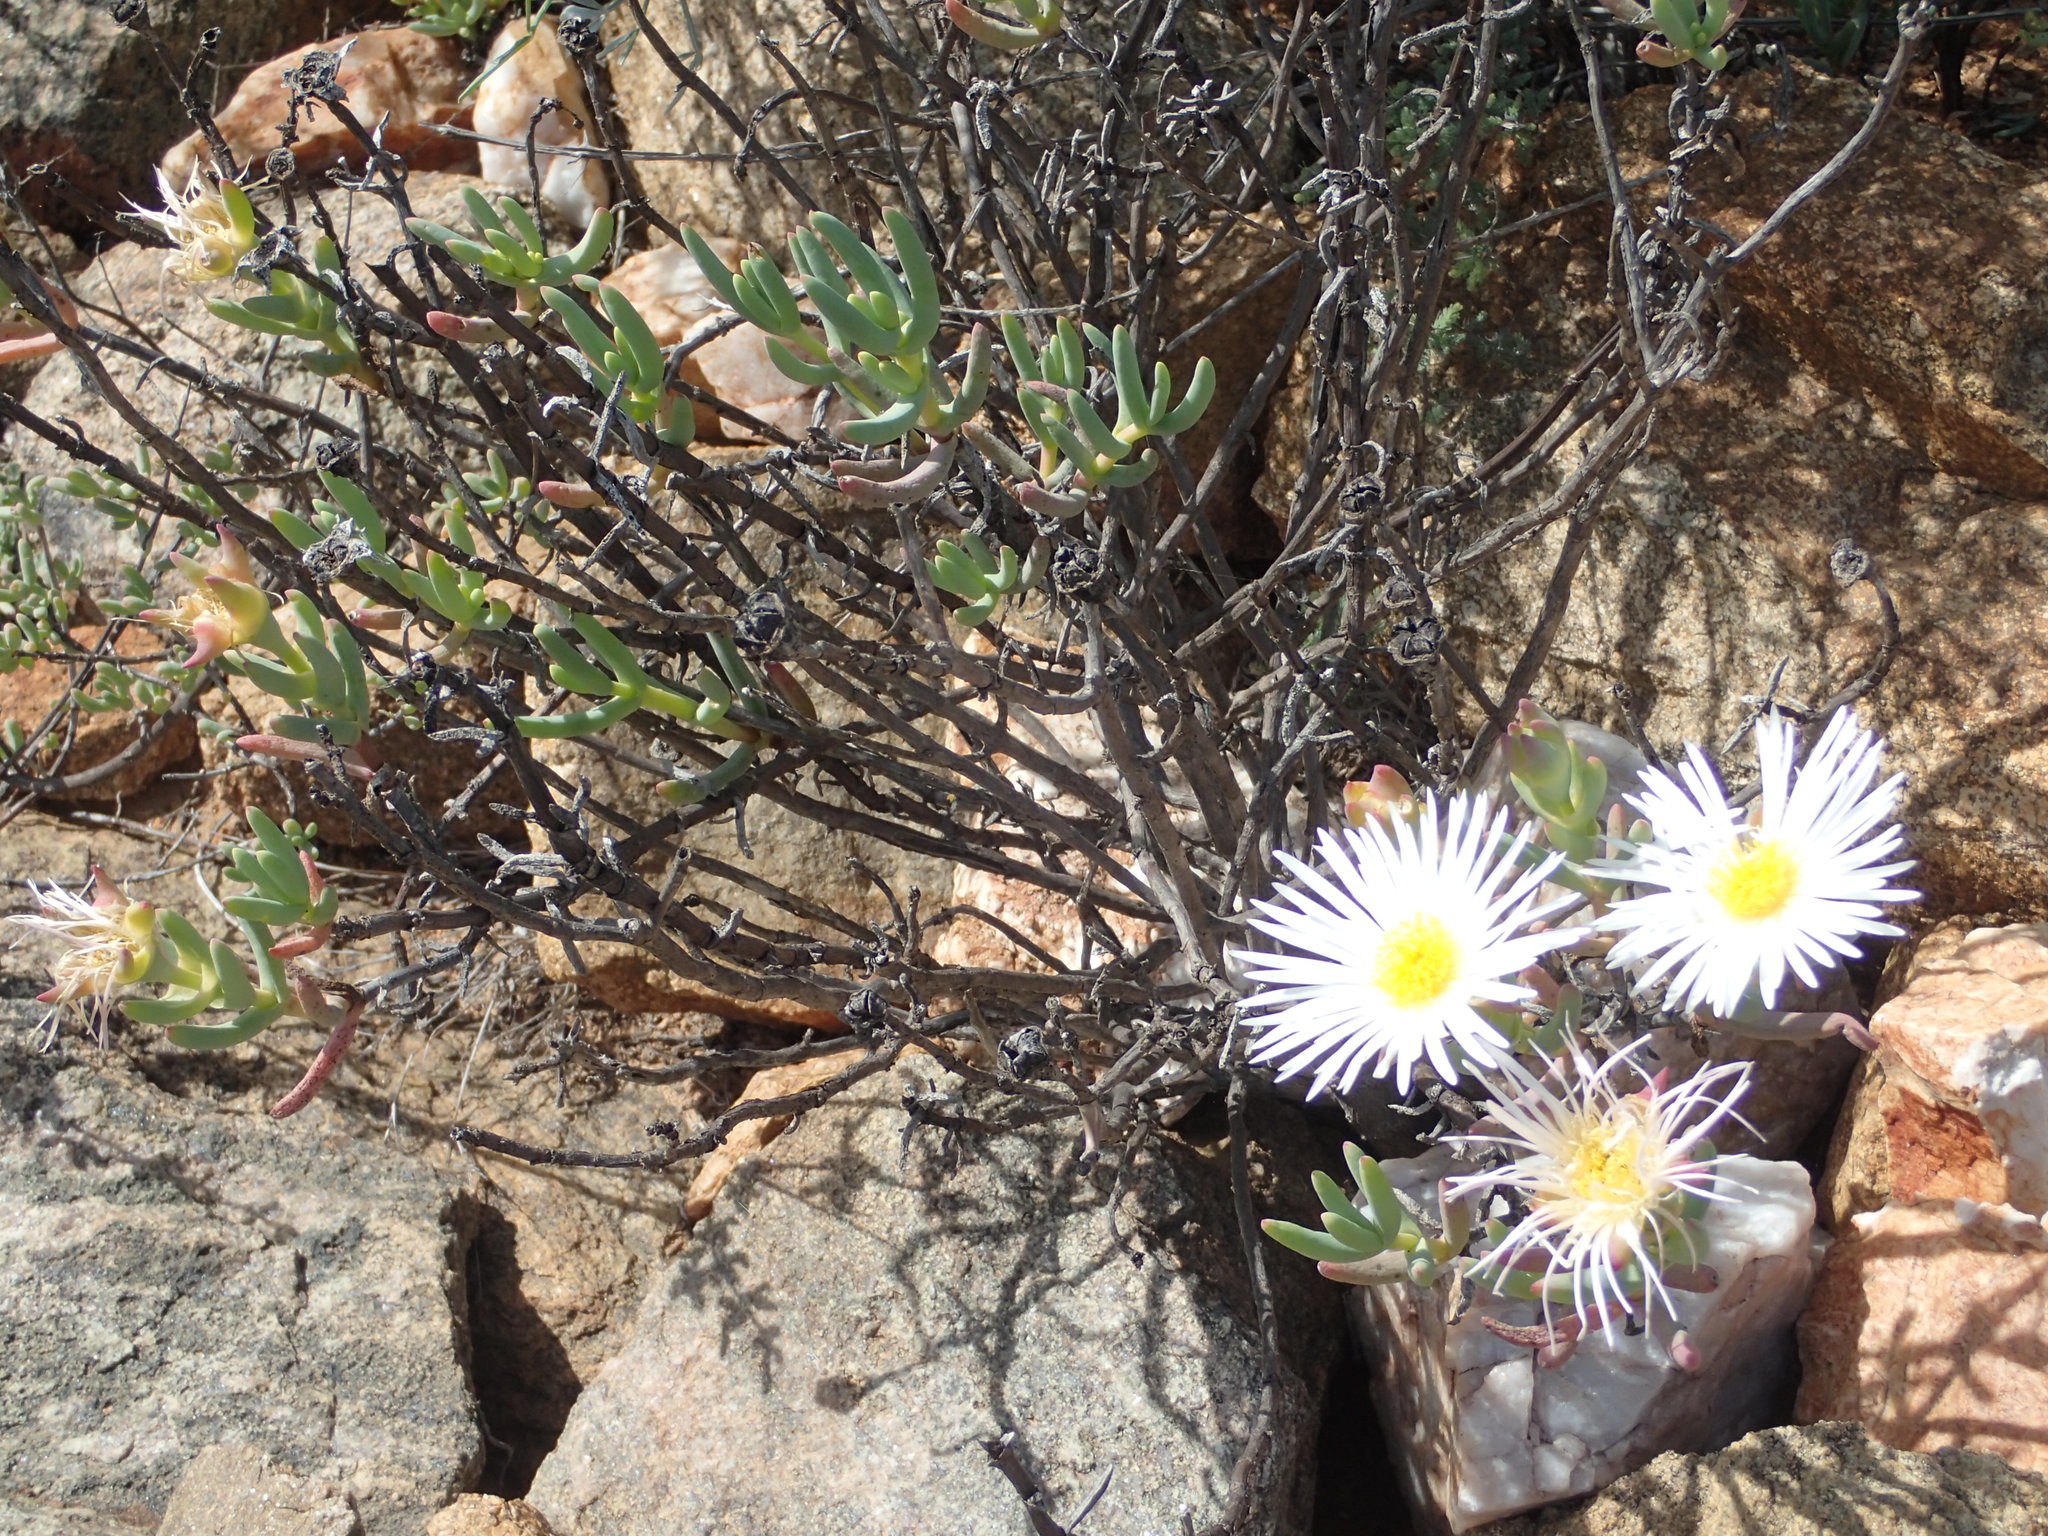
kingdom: Plantae
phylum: Tracheophyta
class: Magnoliopsida
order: Caryophyllales
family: Aizoaceae
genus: Lampranthus
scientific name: Lampranthus watermeyeri
